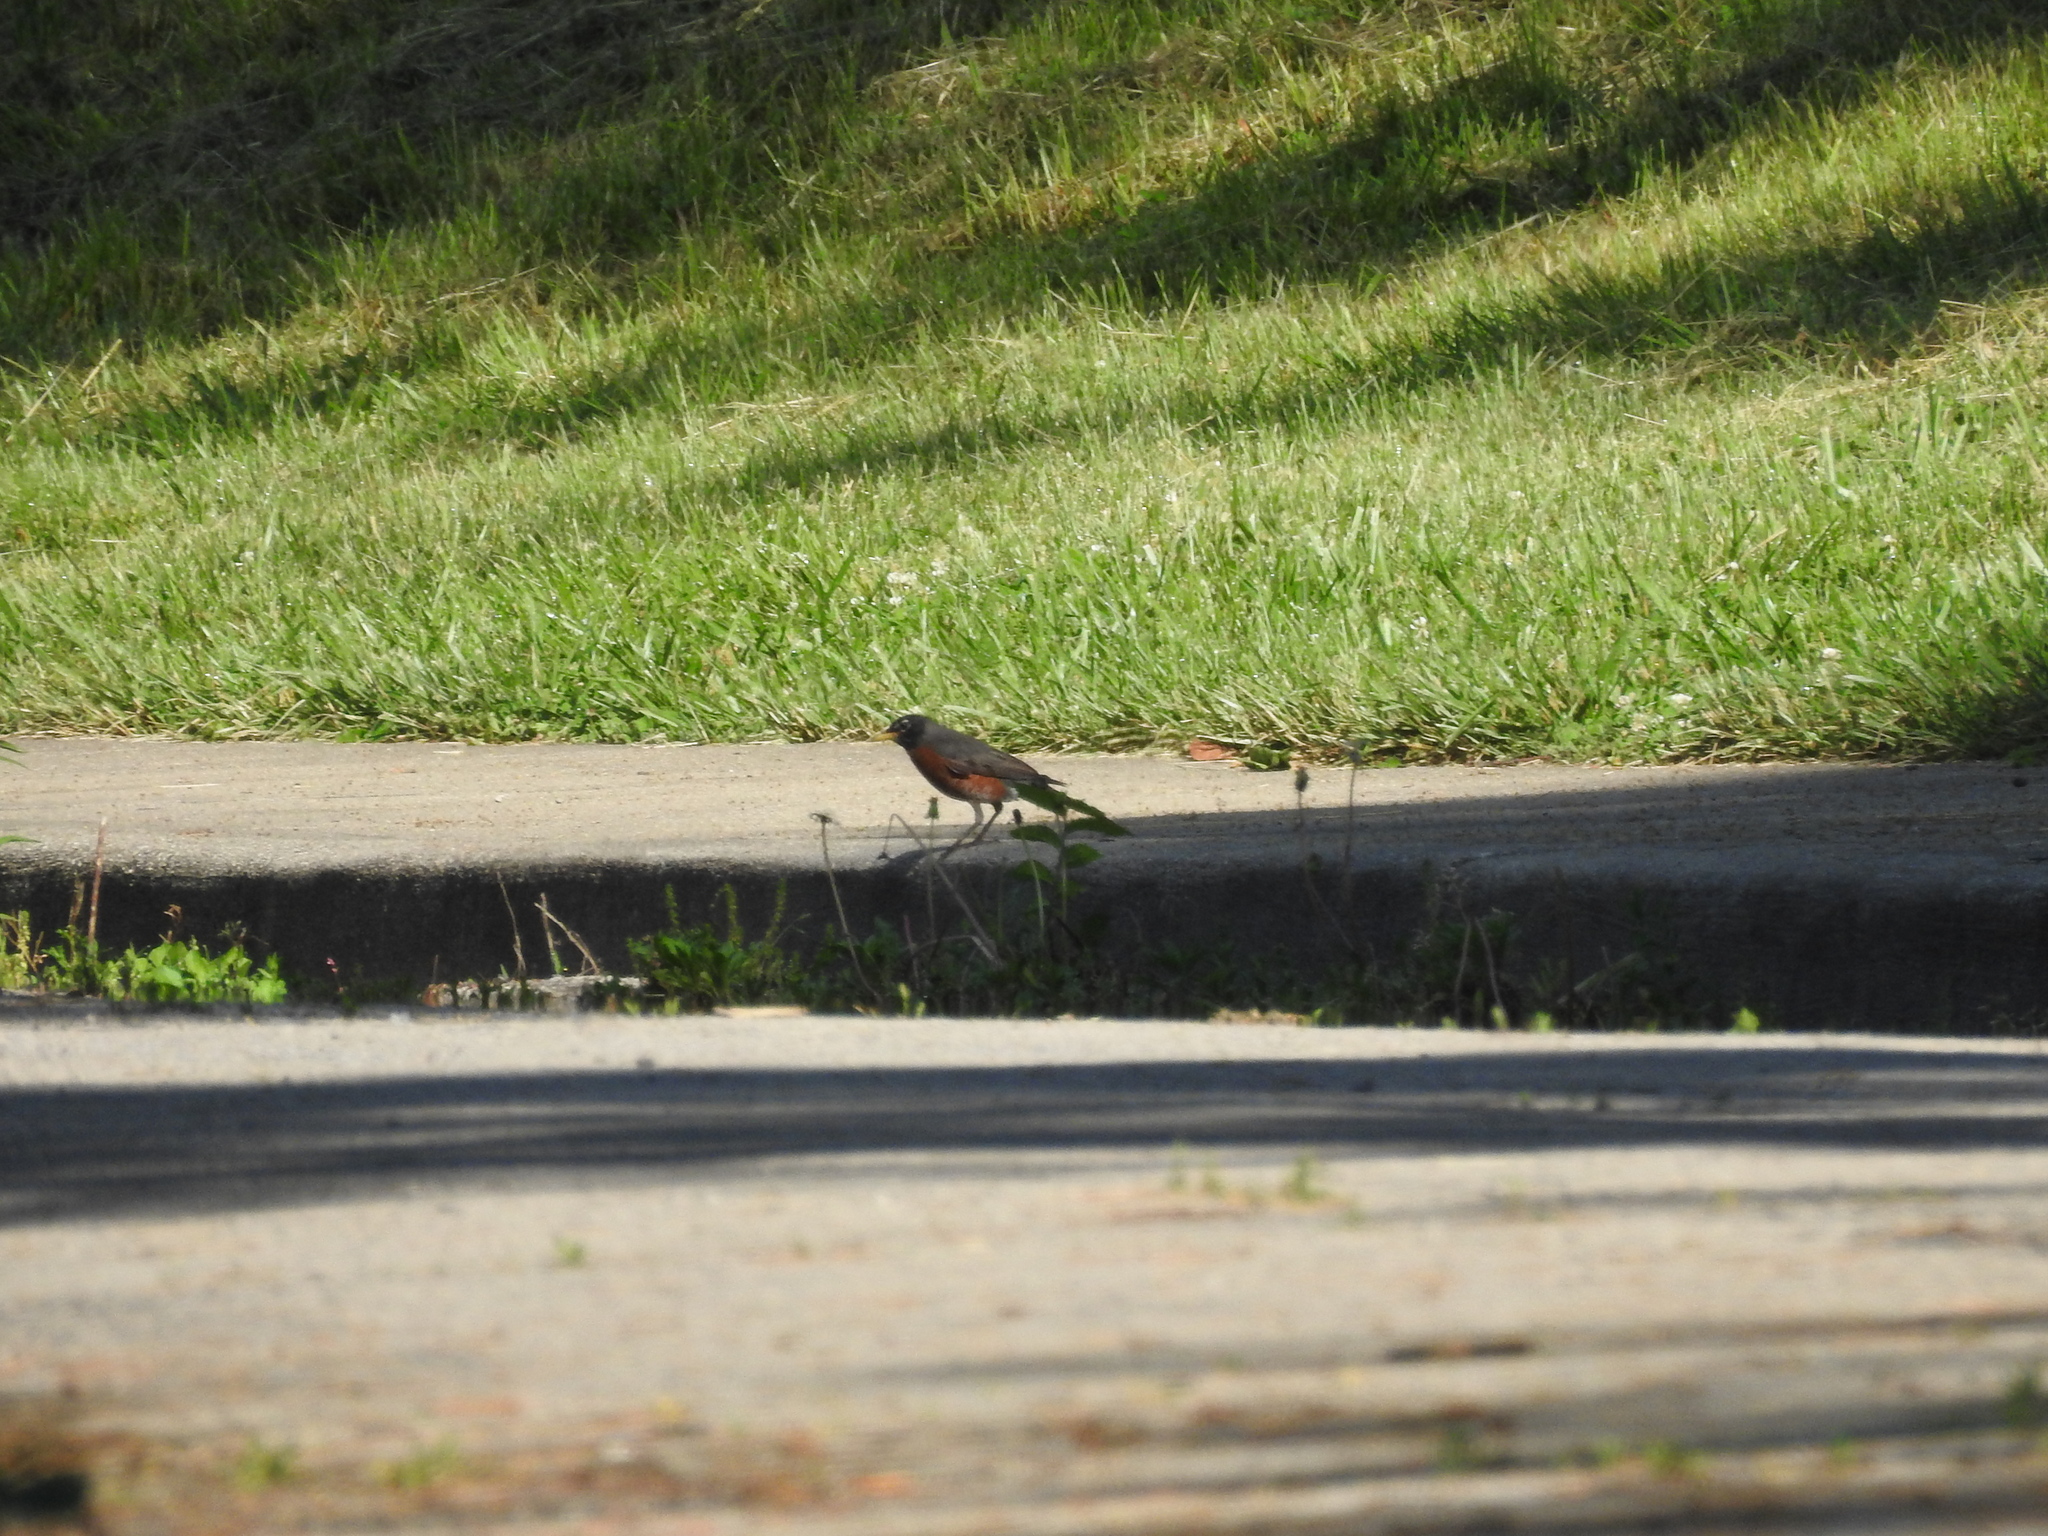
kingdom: Animalia
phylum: Chordata
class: Aves
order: Passeriformes
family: Turdidae
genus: Turdus
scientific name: Turdus migratorius
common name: American robin
